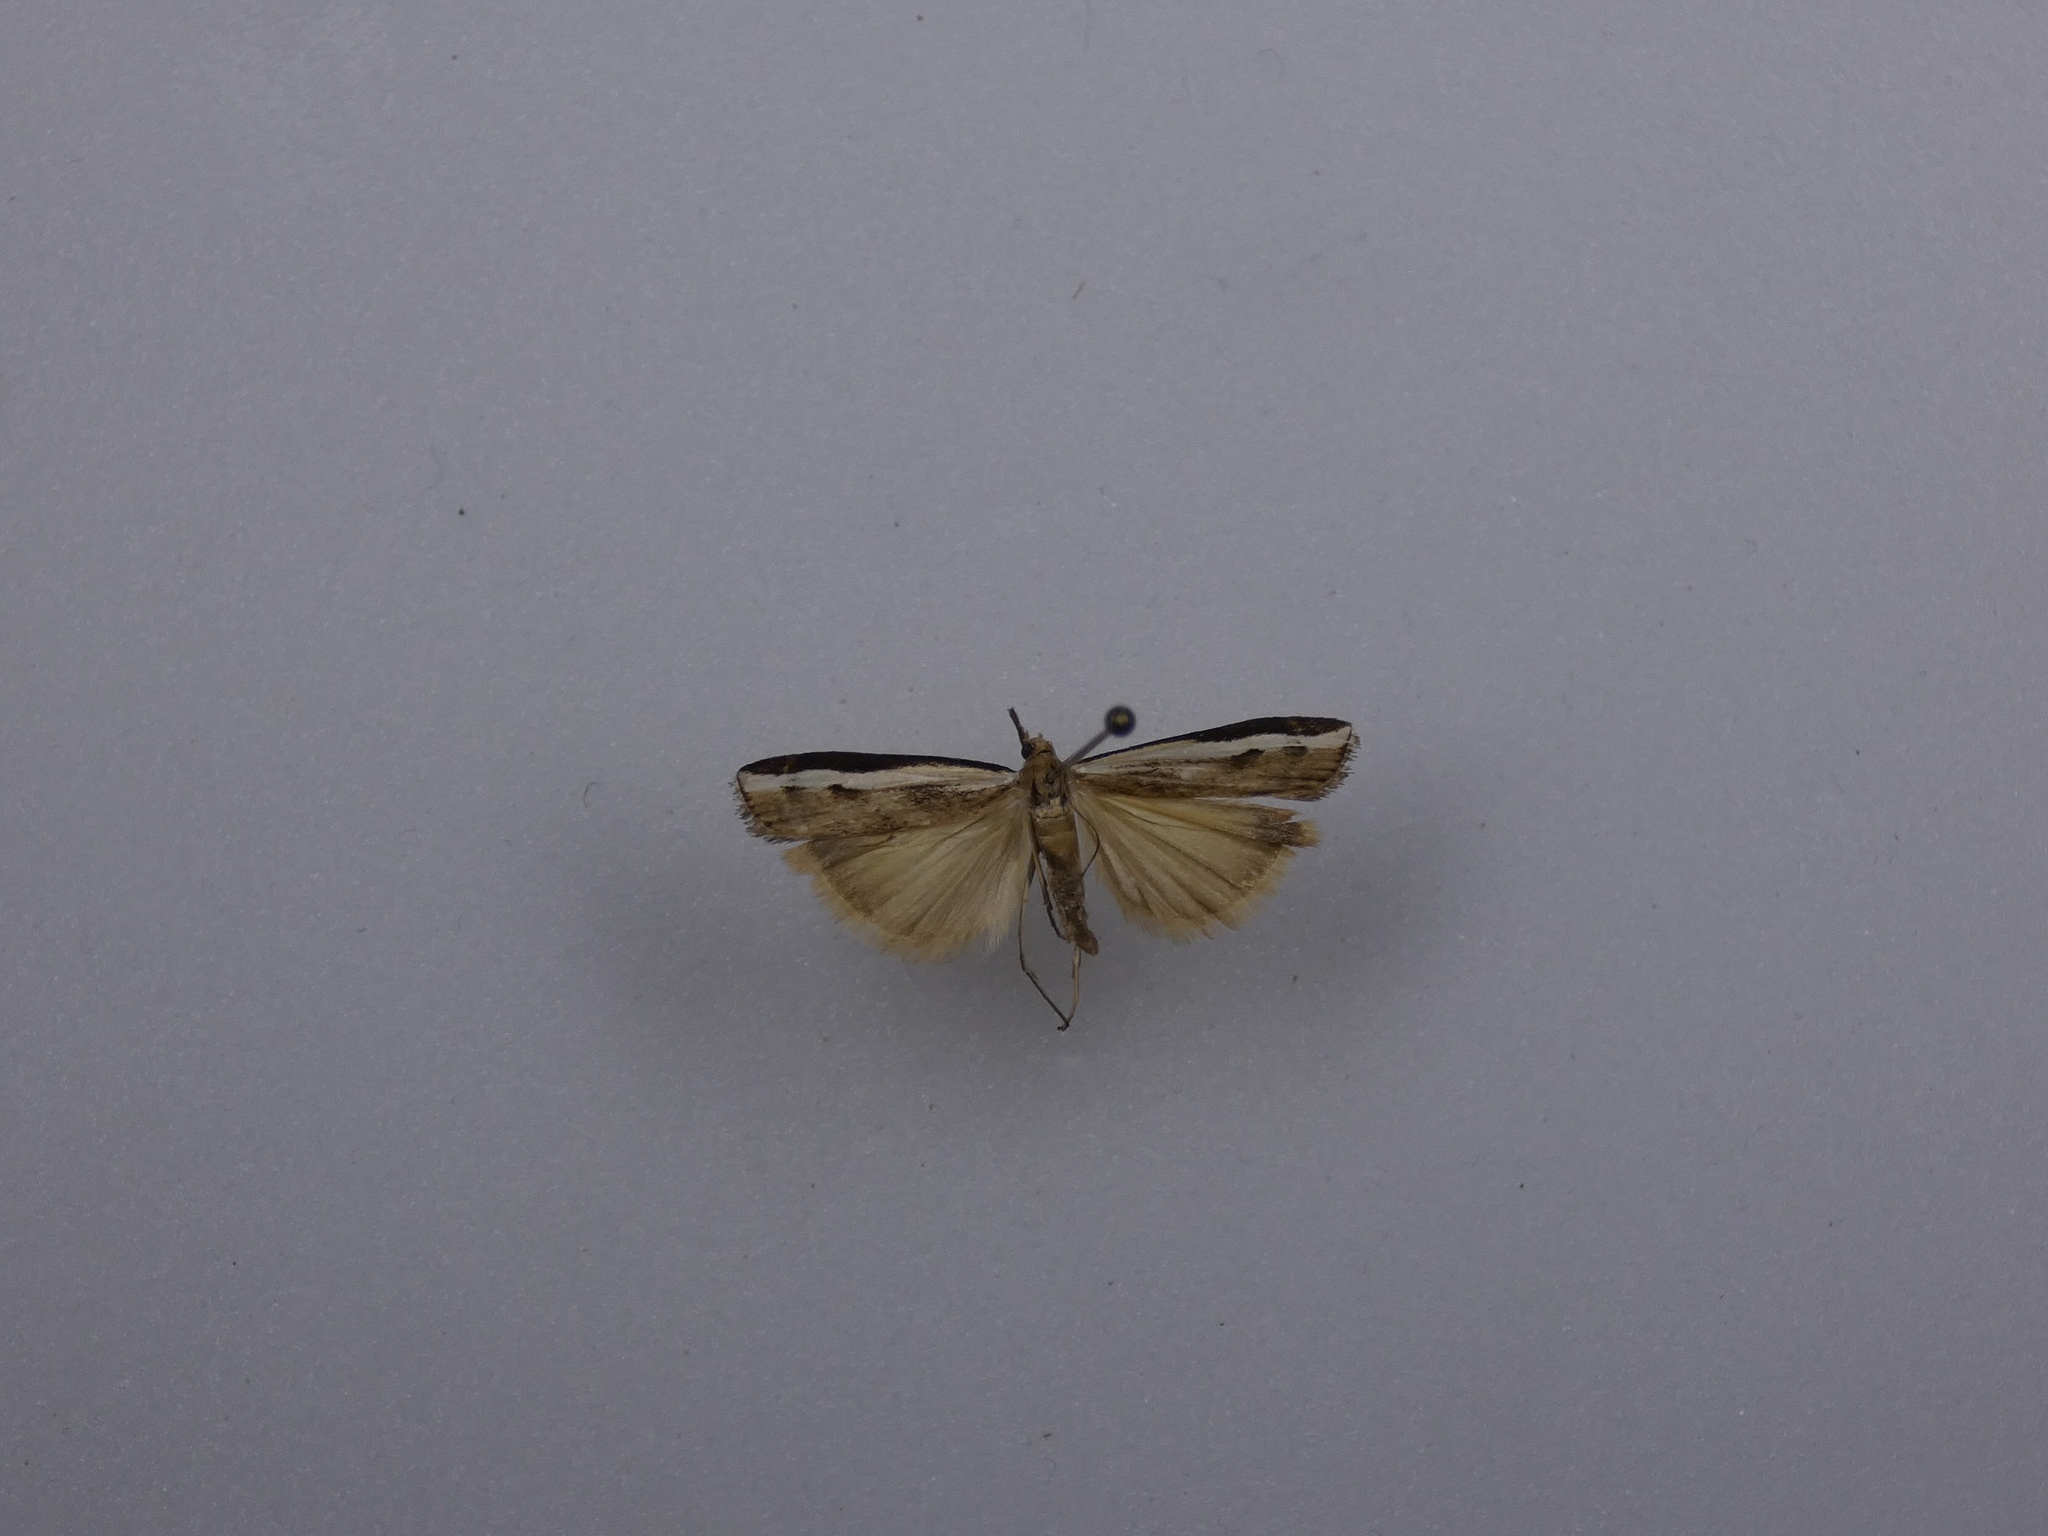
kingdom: Animalia
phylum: Arthropoda
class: Insecta
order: Lepidoptera
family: Crambidae
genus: Orocrambus
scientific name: Orocrambus flexuosellus
